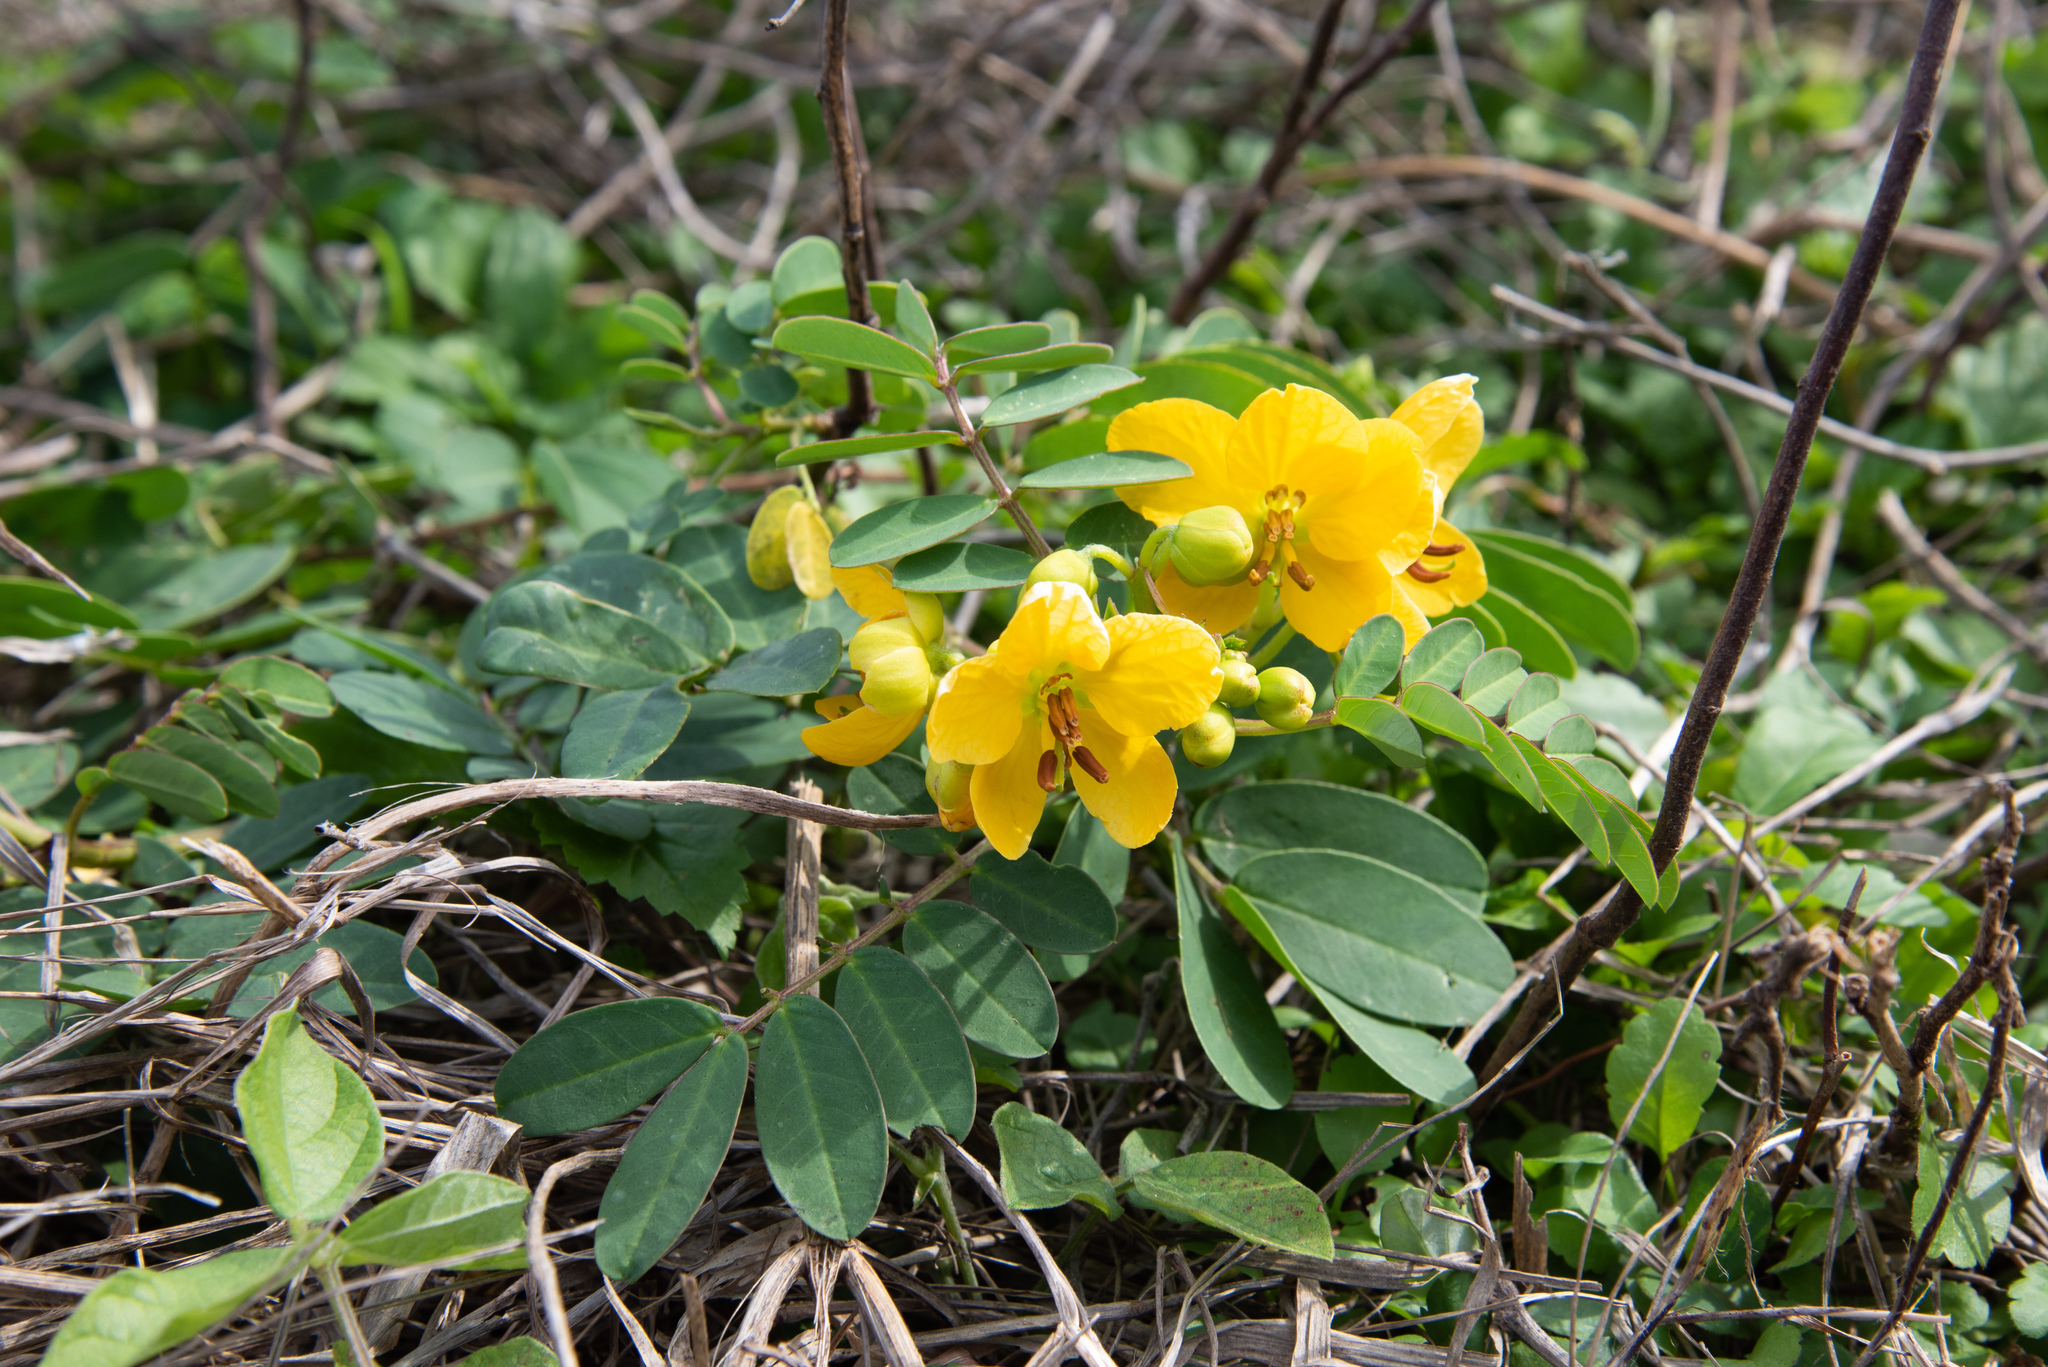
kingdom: Plantae
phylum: Tracheophyta
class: Magnoliopsida
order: Fabales
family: Fabaceae
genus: Senna
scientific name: Senna sophera
